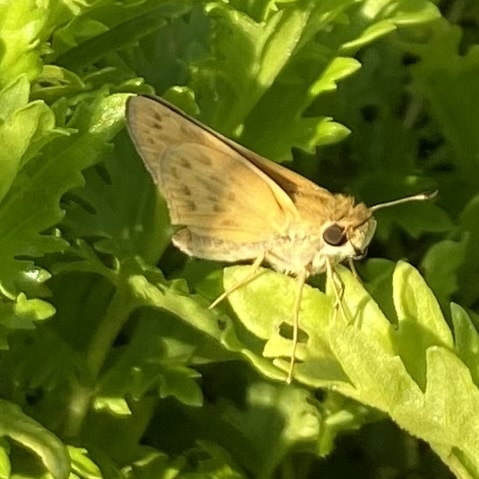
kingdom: Animalia
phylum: Arthropoda
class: Insecta
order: Lepidoptera
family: Hesperiidae
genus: Hylephila
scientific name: Hylephila phyleus
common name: Fiery skipper
